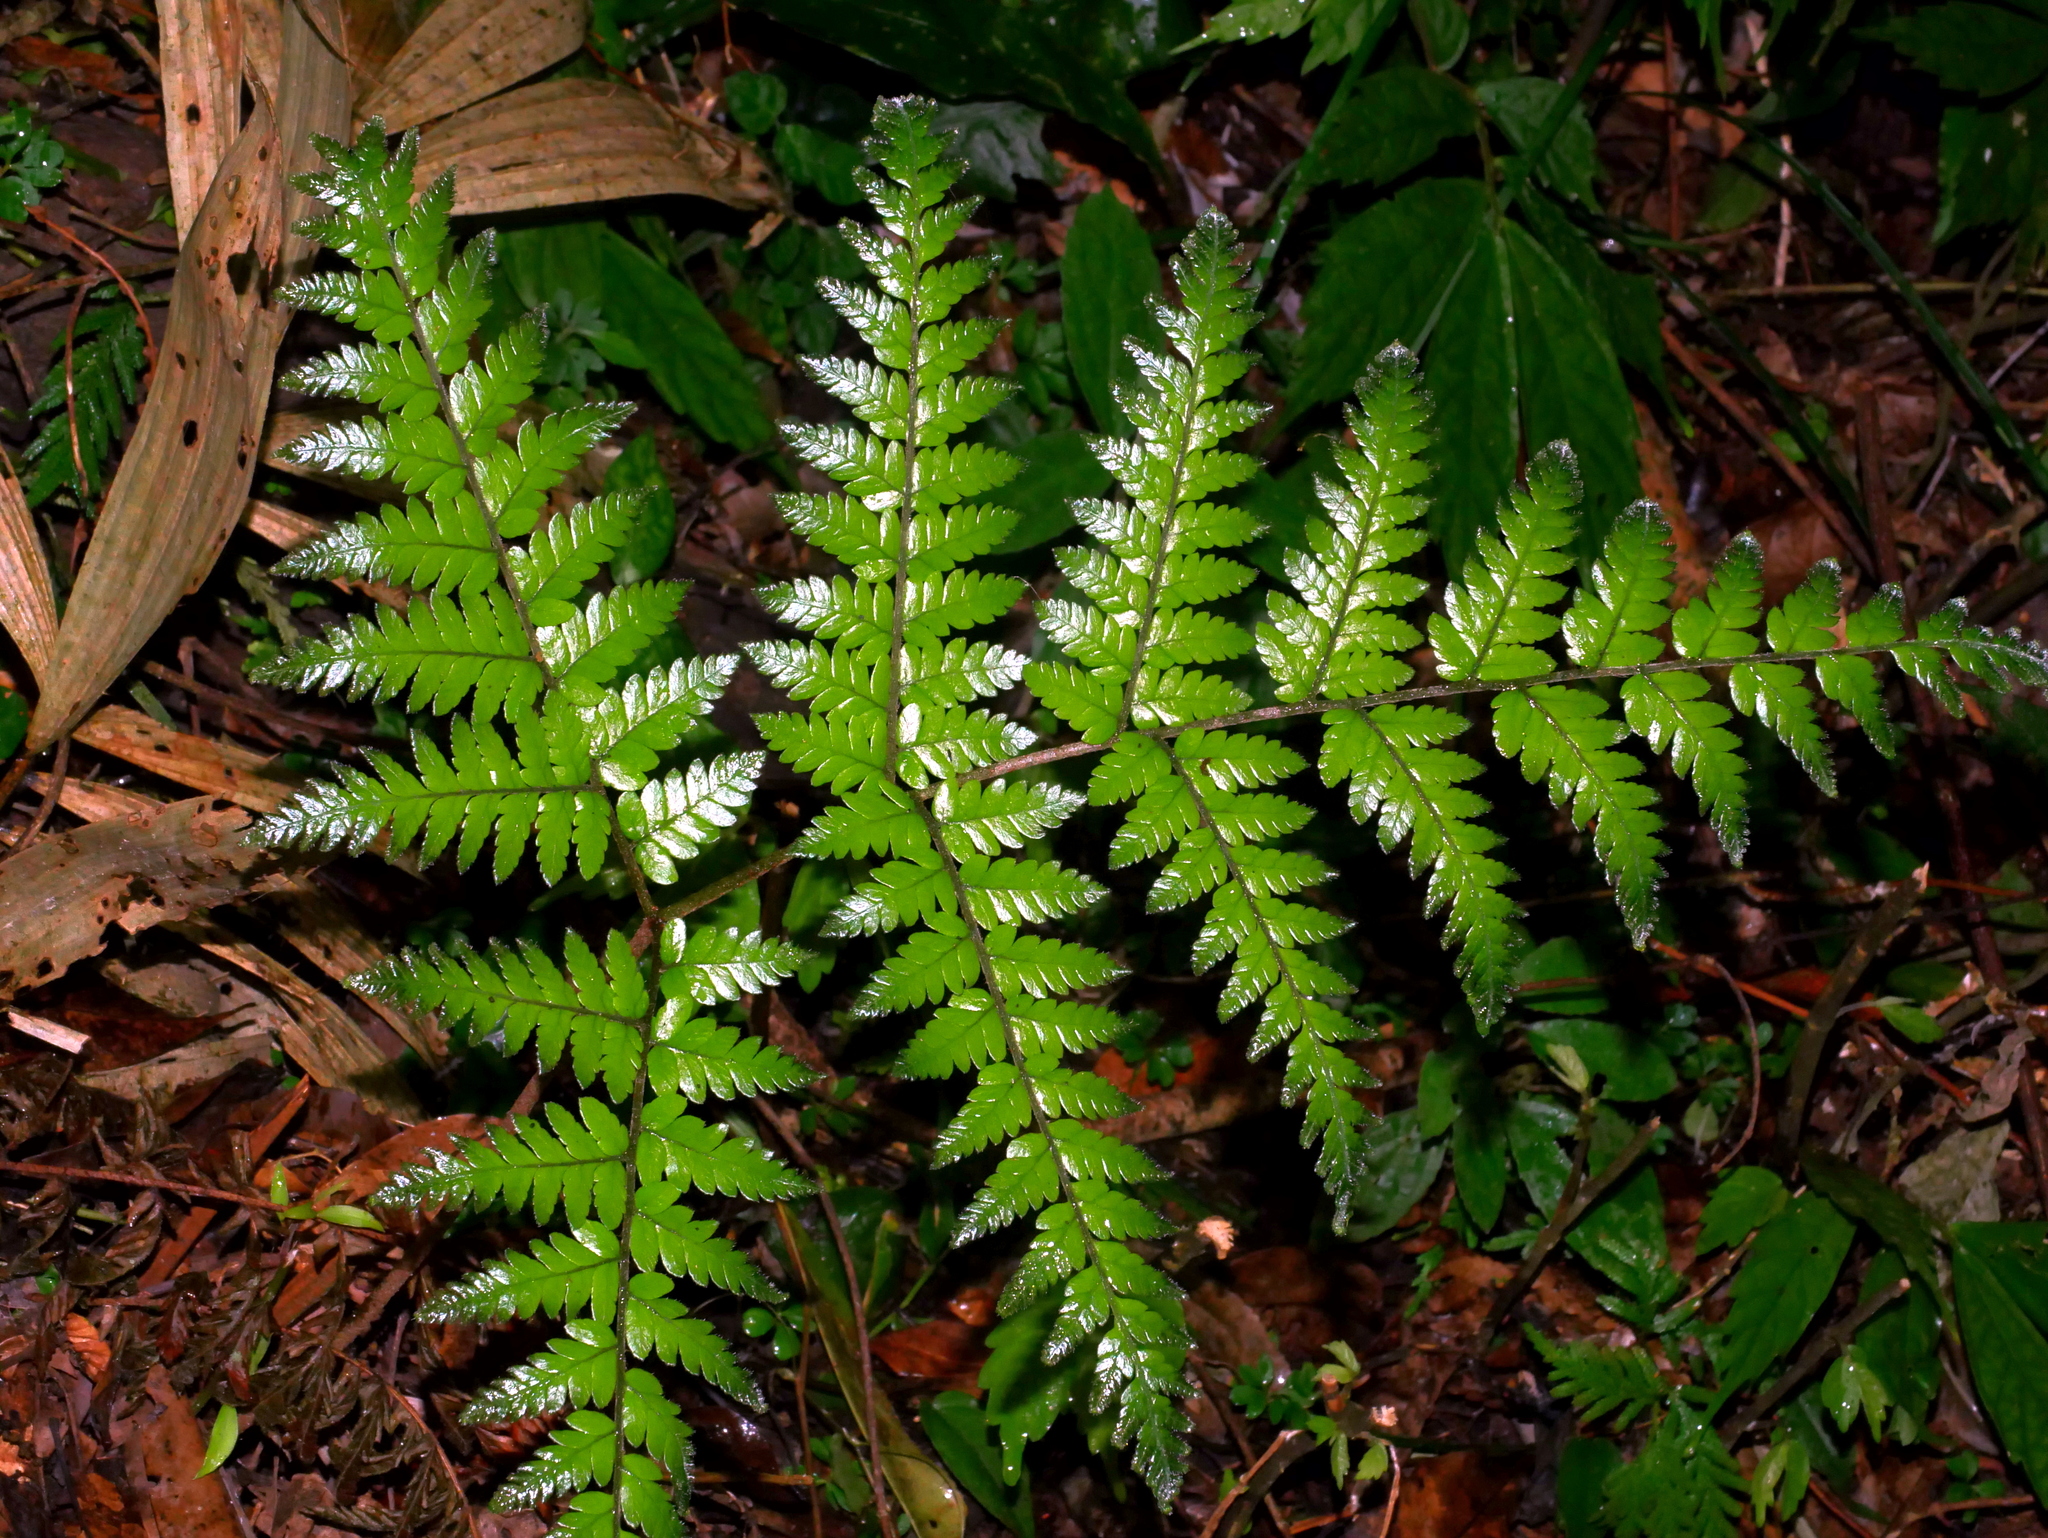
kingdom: Plantae
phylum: Tracheophyta
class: Polypodiopsida
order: Polypodiales
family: Dryopteridaceae
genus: Ctenitis
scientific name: Ctenitis subglandulosa
